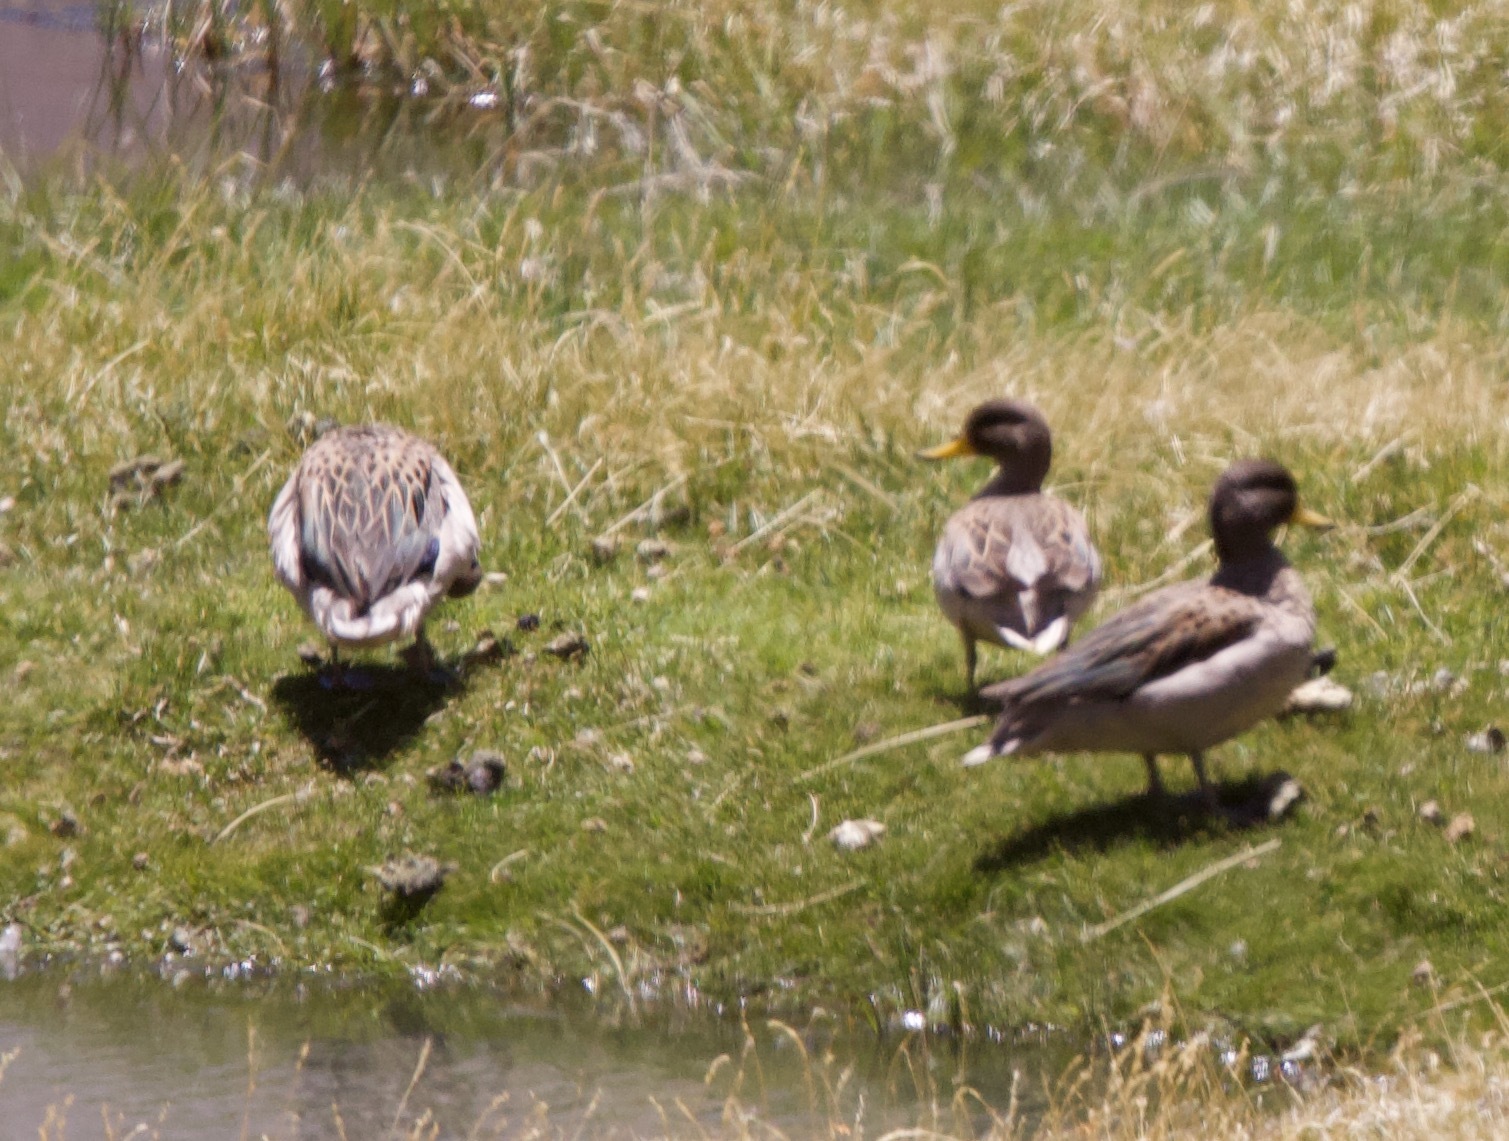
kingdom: Animalia
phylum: Chordata
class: Aves
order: Anseriformes
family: Anatidae
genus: Anas
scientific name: Anas flavirostris
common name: Yellow-billed teal
